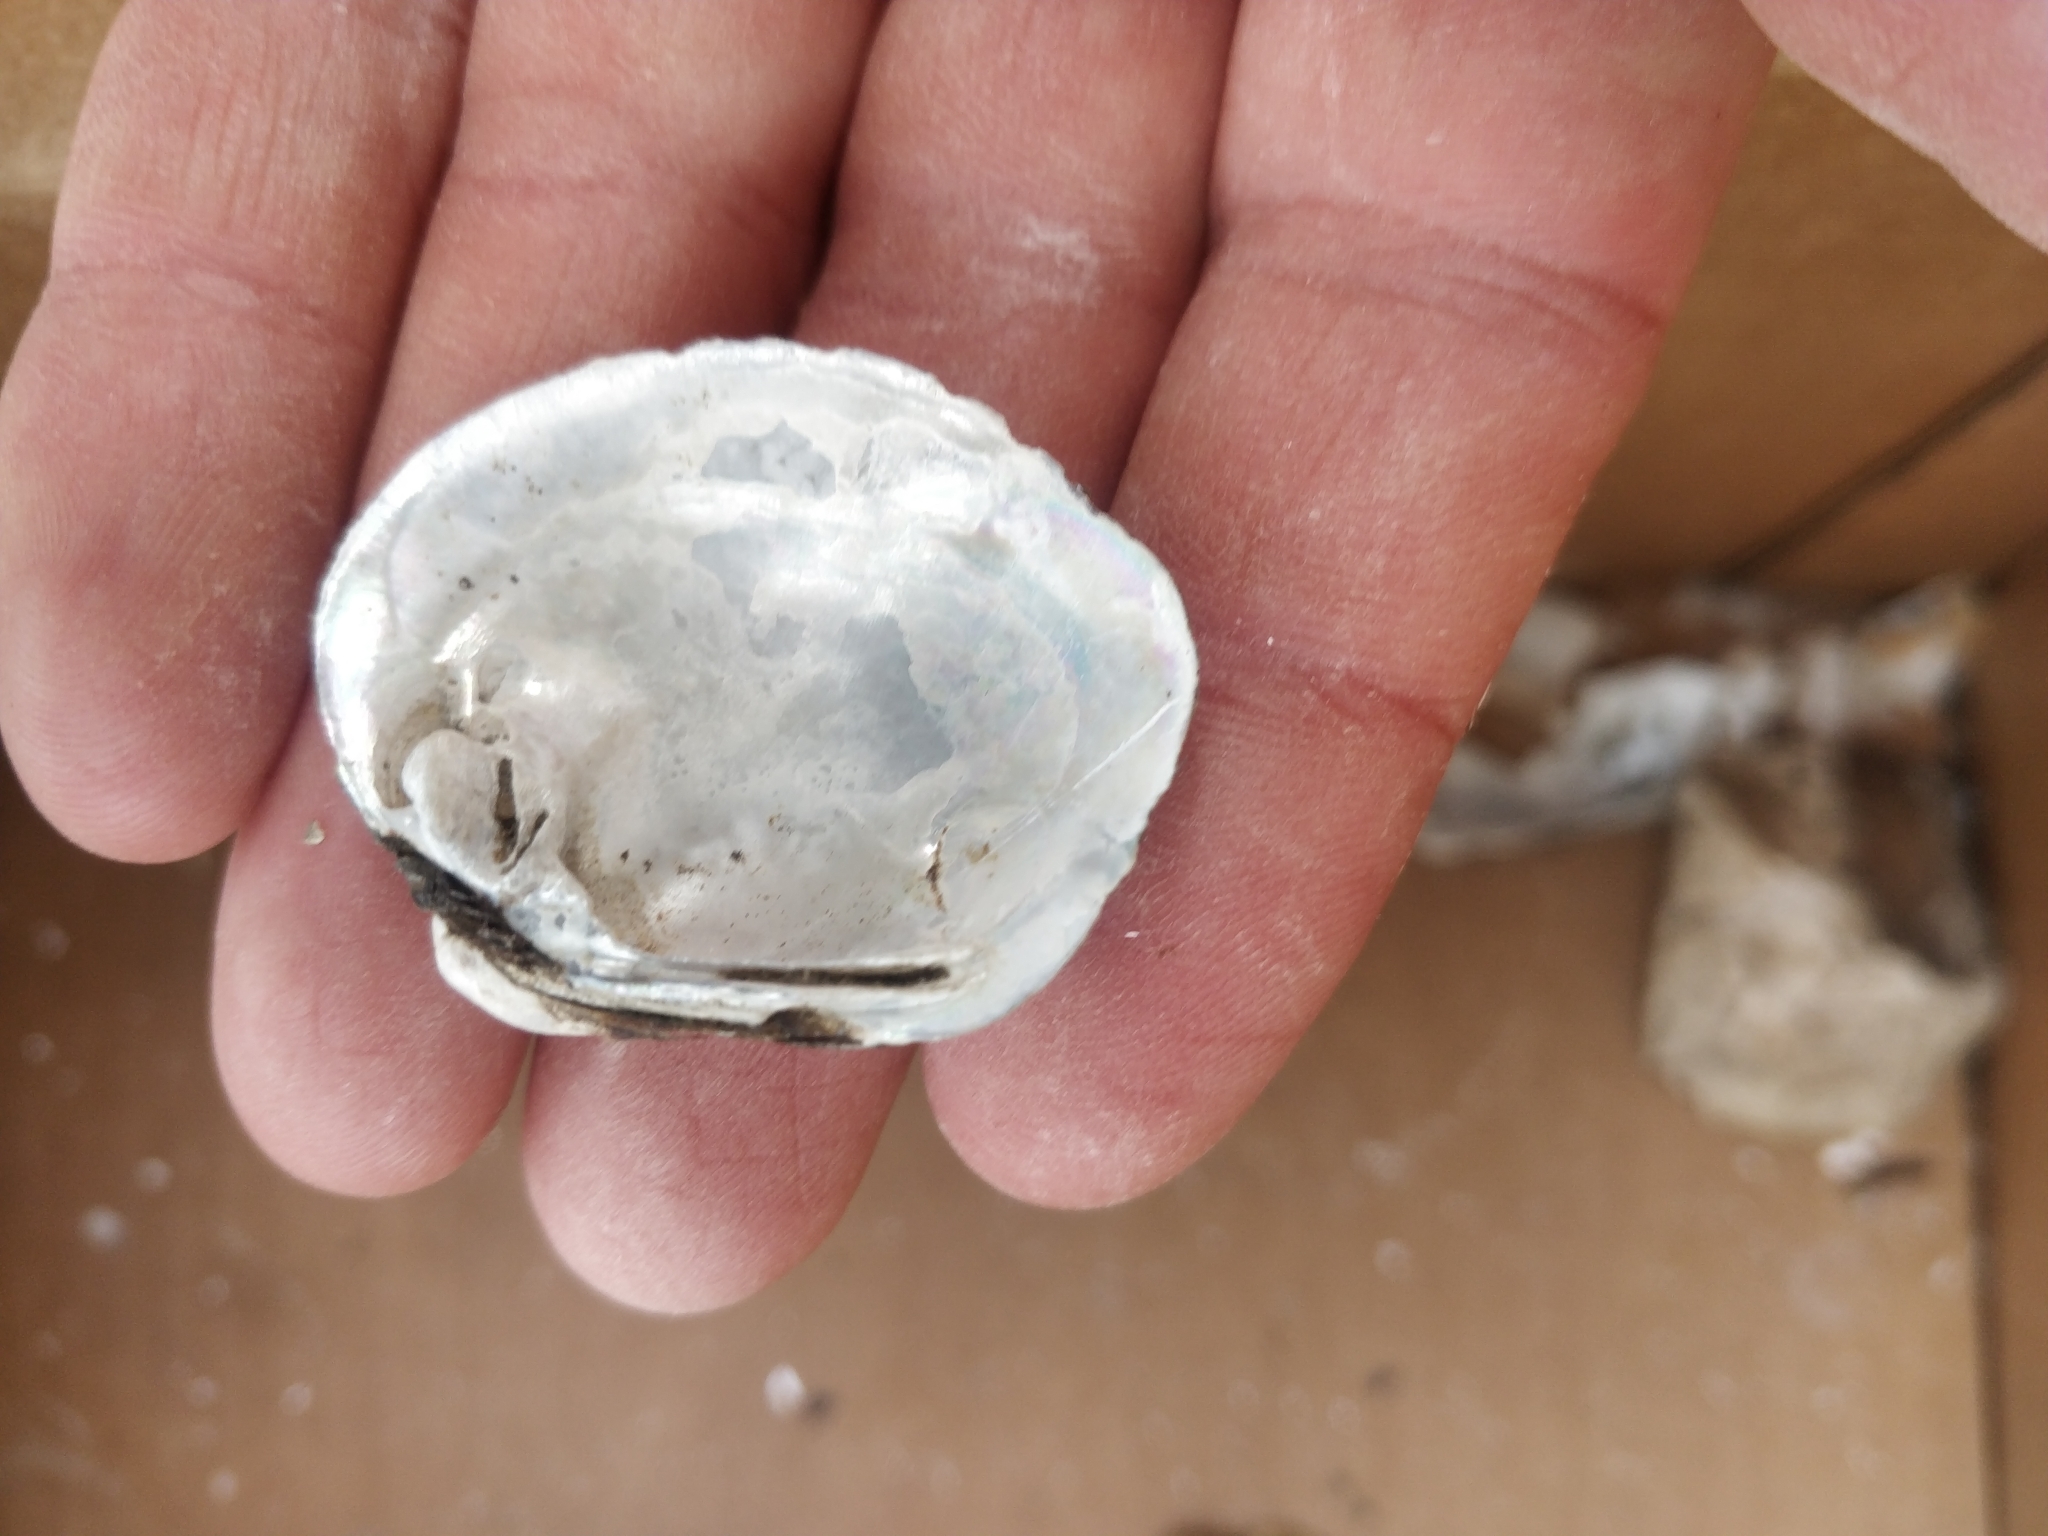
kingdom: Animalia
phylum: Mollusca
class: Bivalvia
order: Unionida
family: Unionidae
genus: Cyclonaias
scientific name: Cyclonaias pustulosa
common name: Pimpleback
